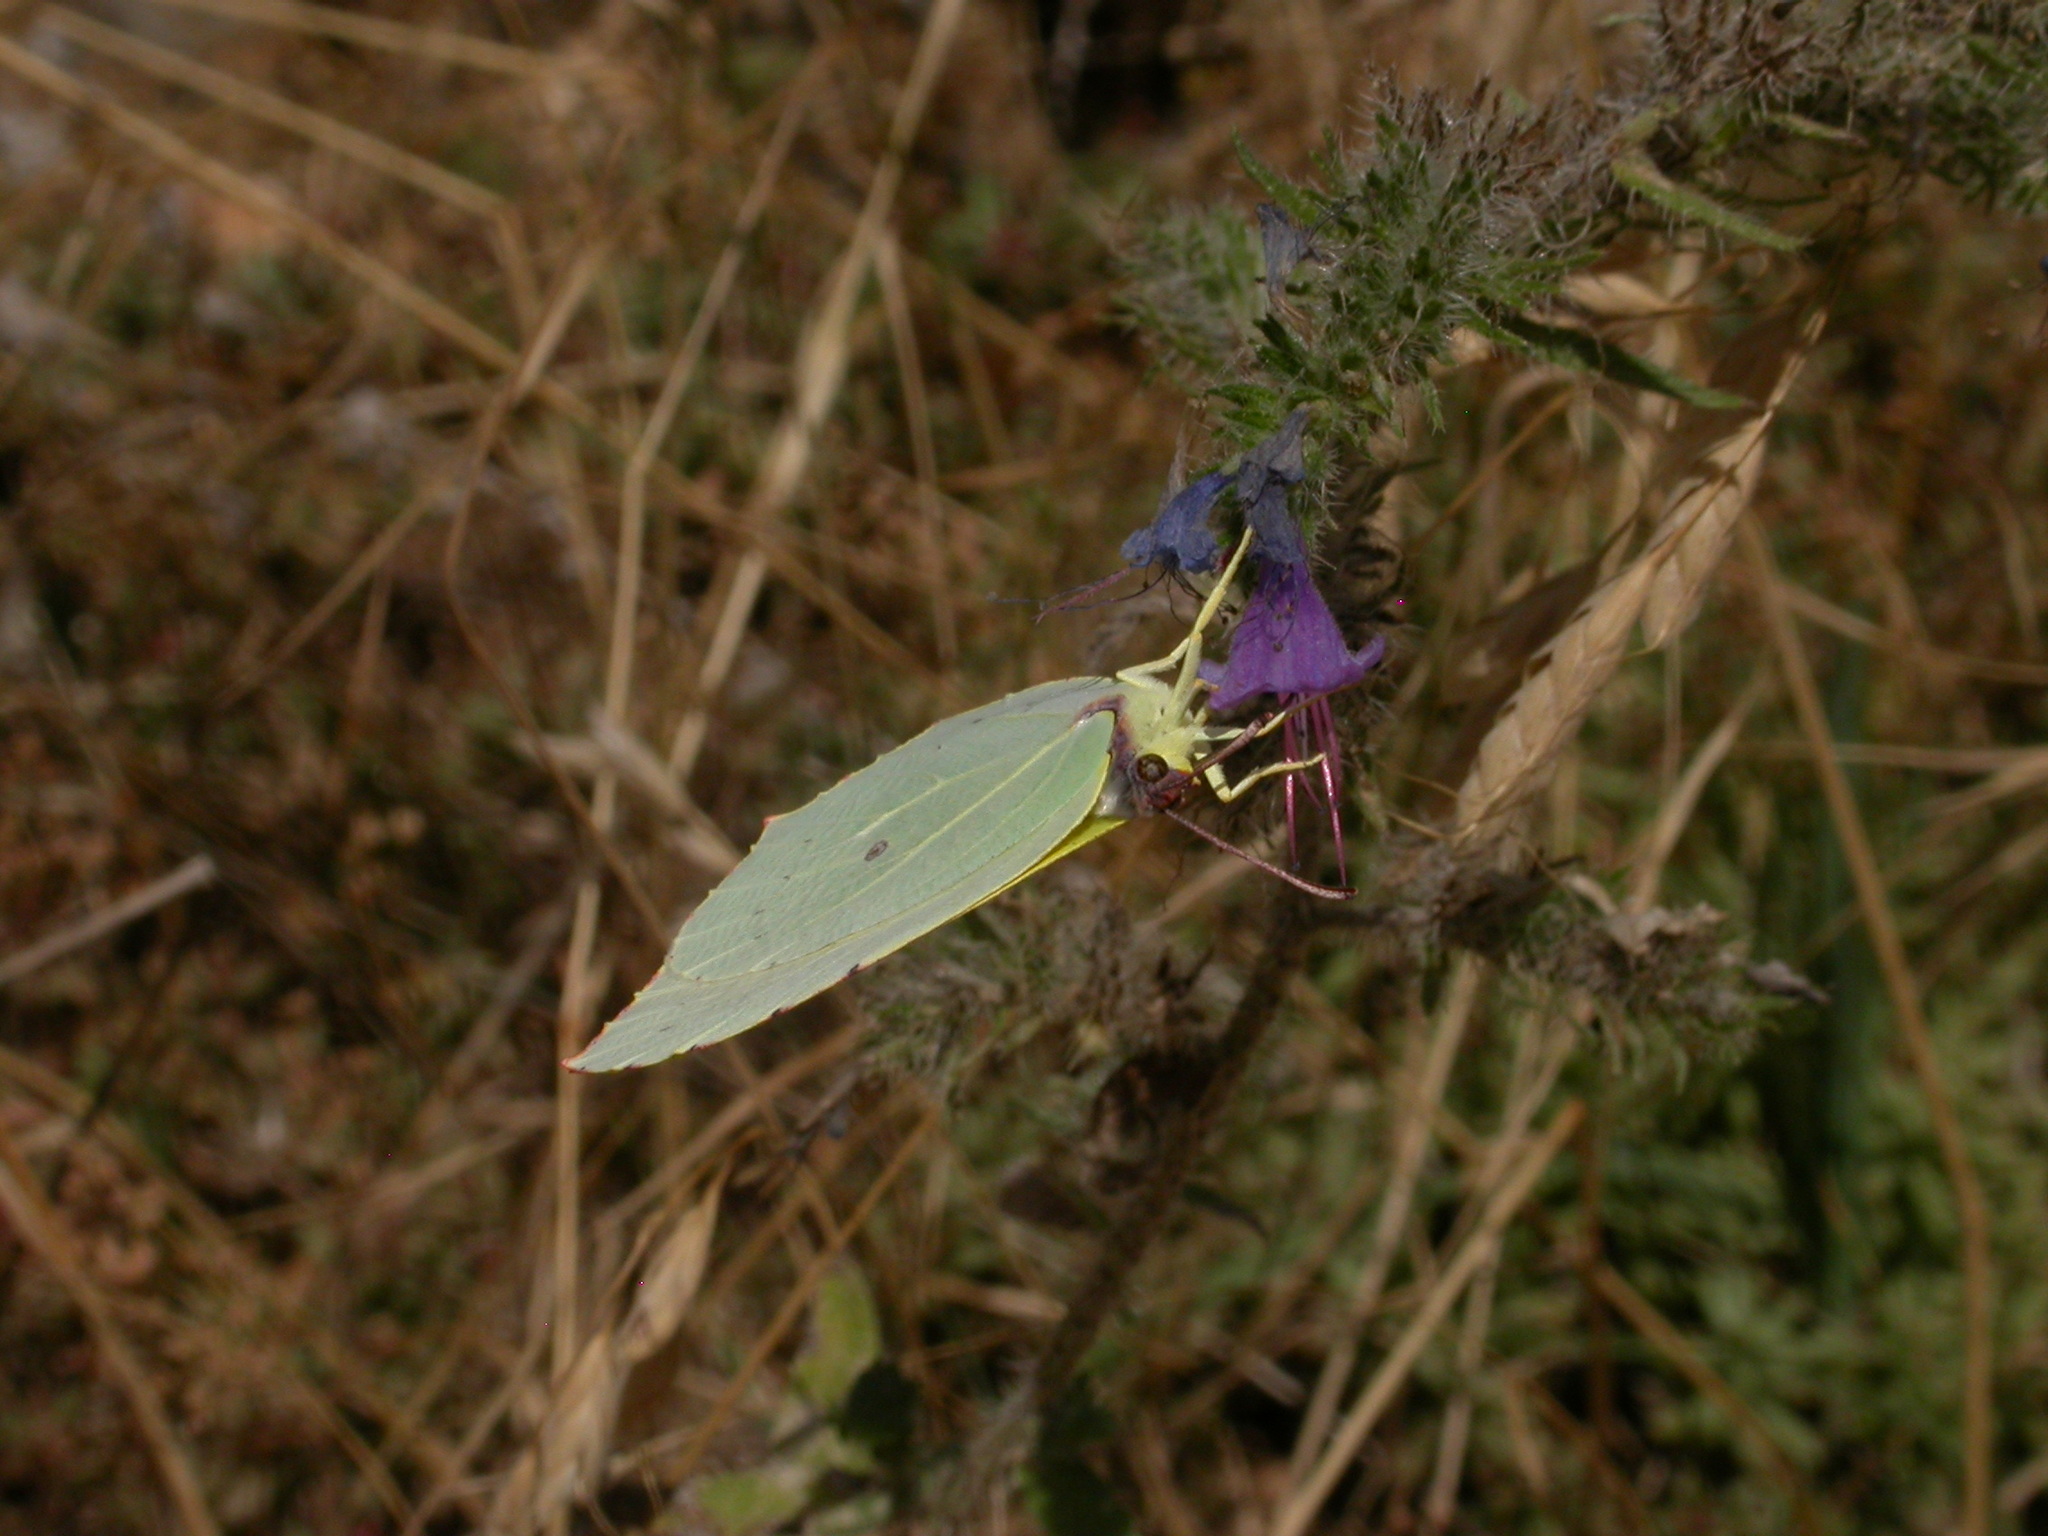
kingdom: Animalia
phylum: Arthropoda
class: Insecta
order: Lepidoptera
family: Pieridae
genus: Gonepteryx
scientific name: Gonepteryx cleopatra
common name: Cleopatra
